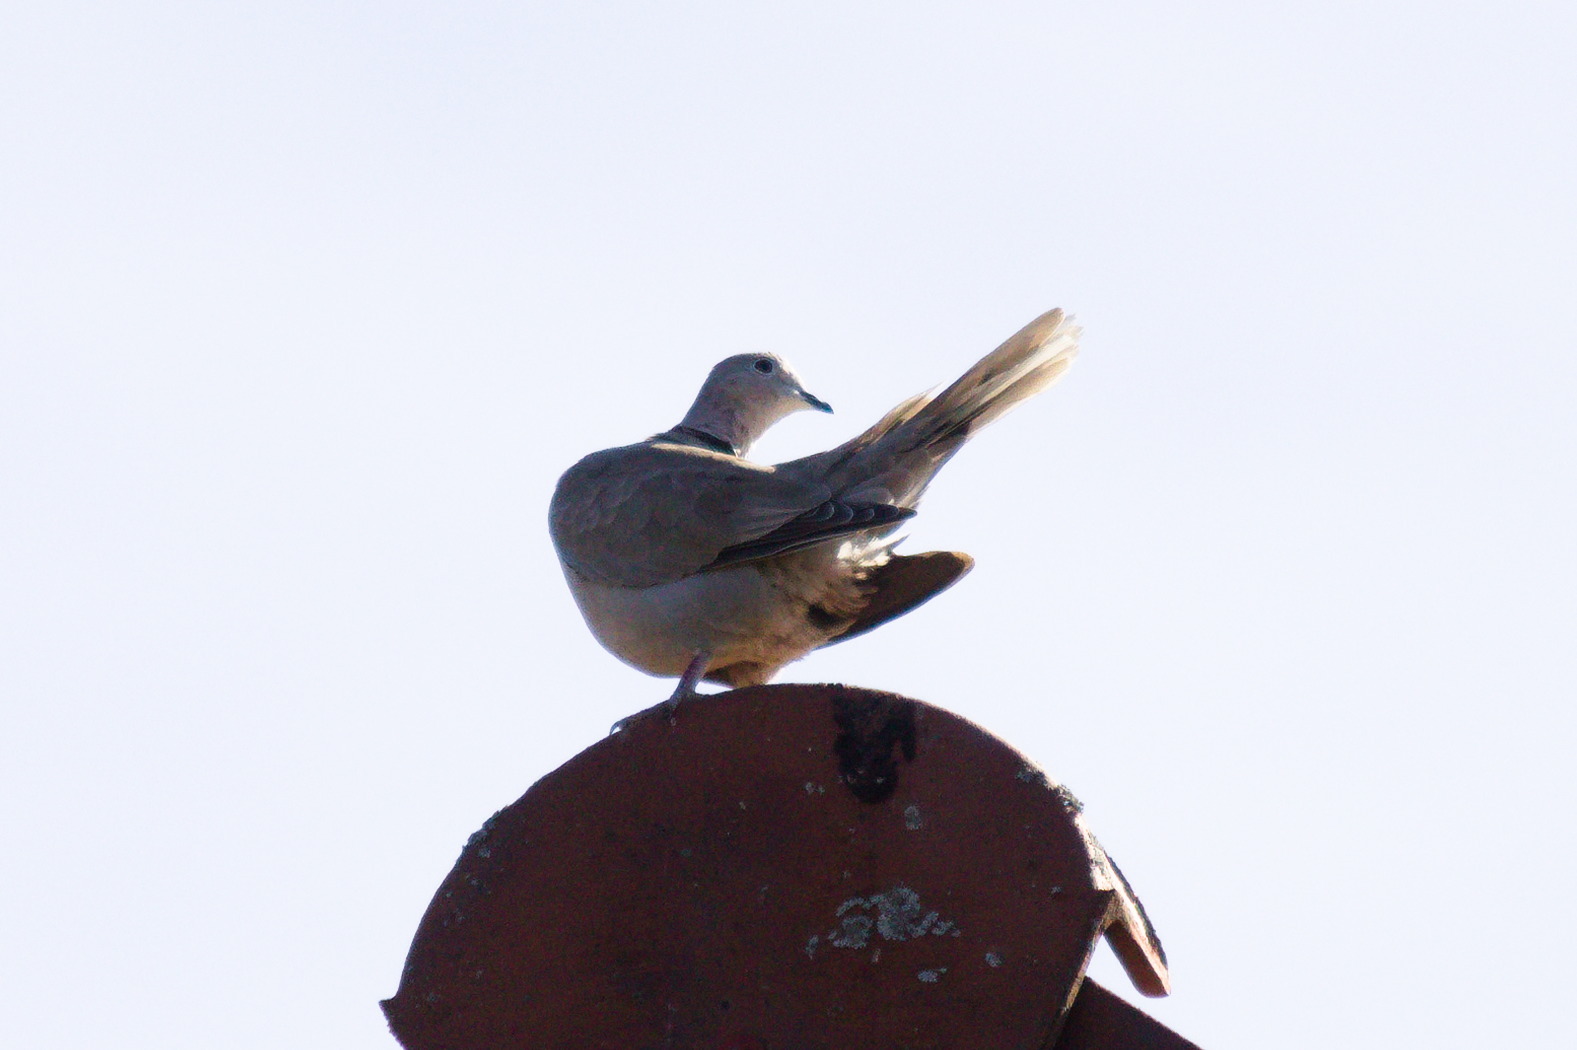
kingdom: Animalia
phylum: Chordata
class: Aves
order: Columbiformes
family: Columbidae
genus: Streptopelia
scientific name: Streptopelia decaocto
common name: Eurasian collared dove
